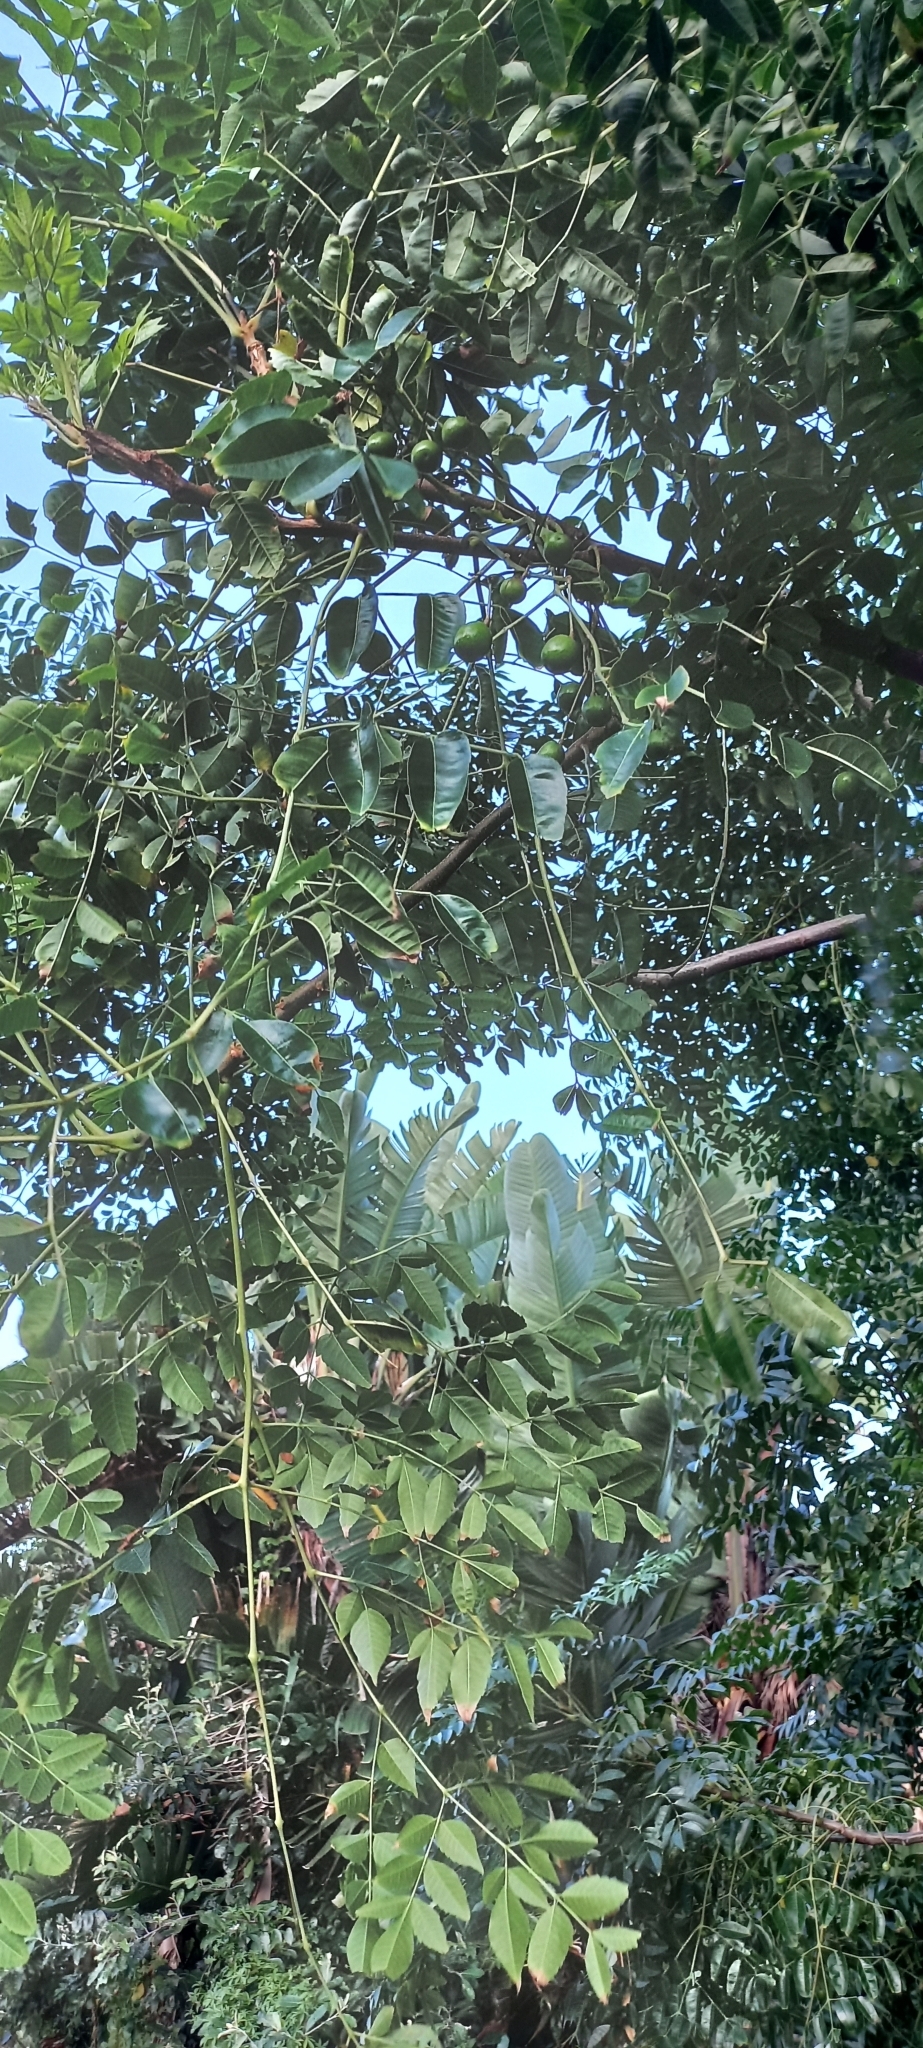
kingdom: Plantae
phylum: Tracheophyta
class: Magnoliopsida
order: Sapindales
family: Meliaceae
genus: Melia
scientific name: Melia azedarach
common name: Chinaberrytree
